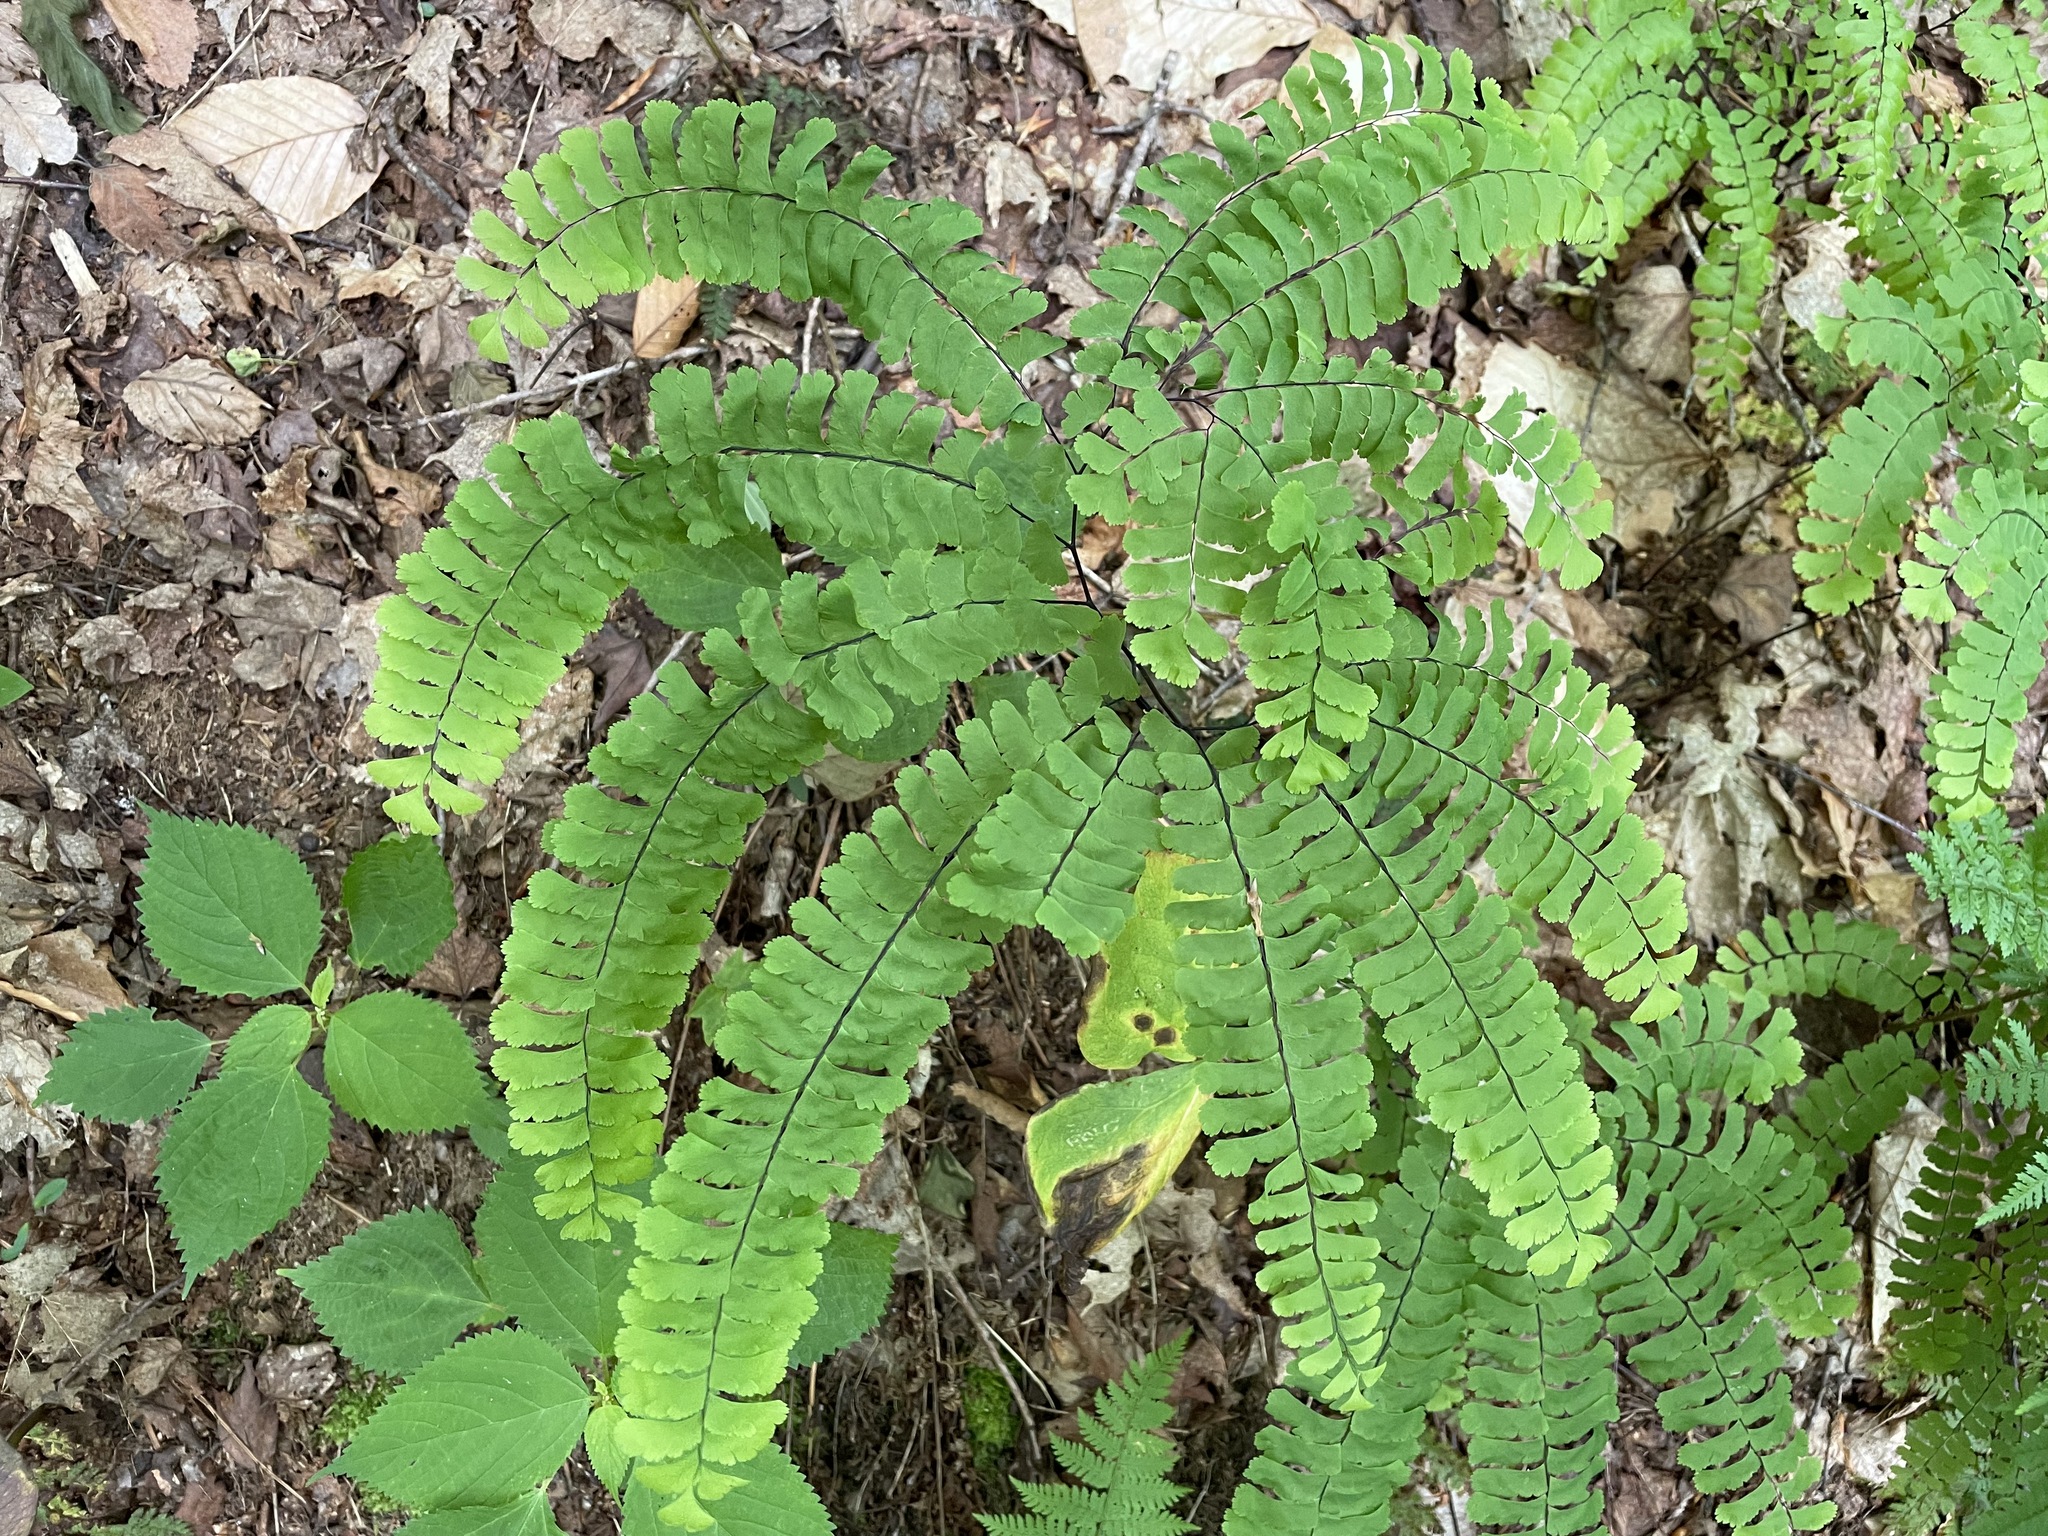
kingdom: Plantae
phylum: Tracheophyta
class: Polypodiopsida
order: Polypodiales
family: Pteridaceae
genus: Adiantum
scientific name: Adiantum pedatum
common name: Five-finger fern
